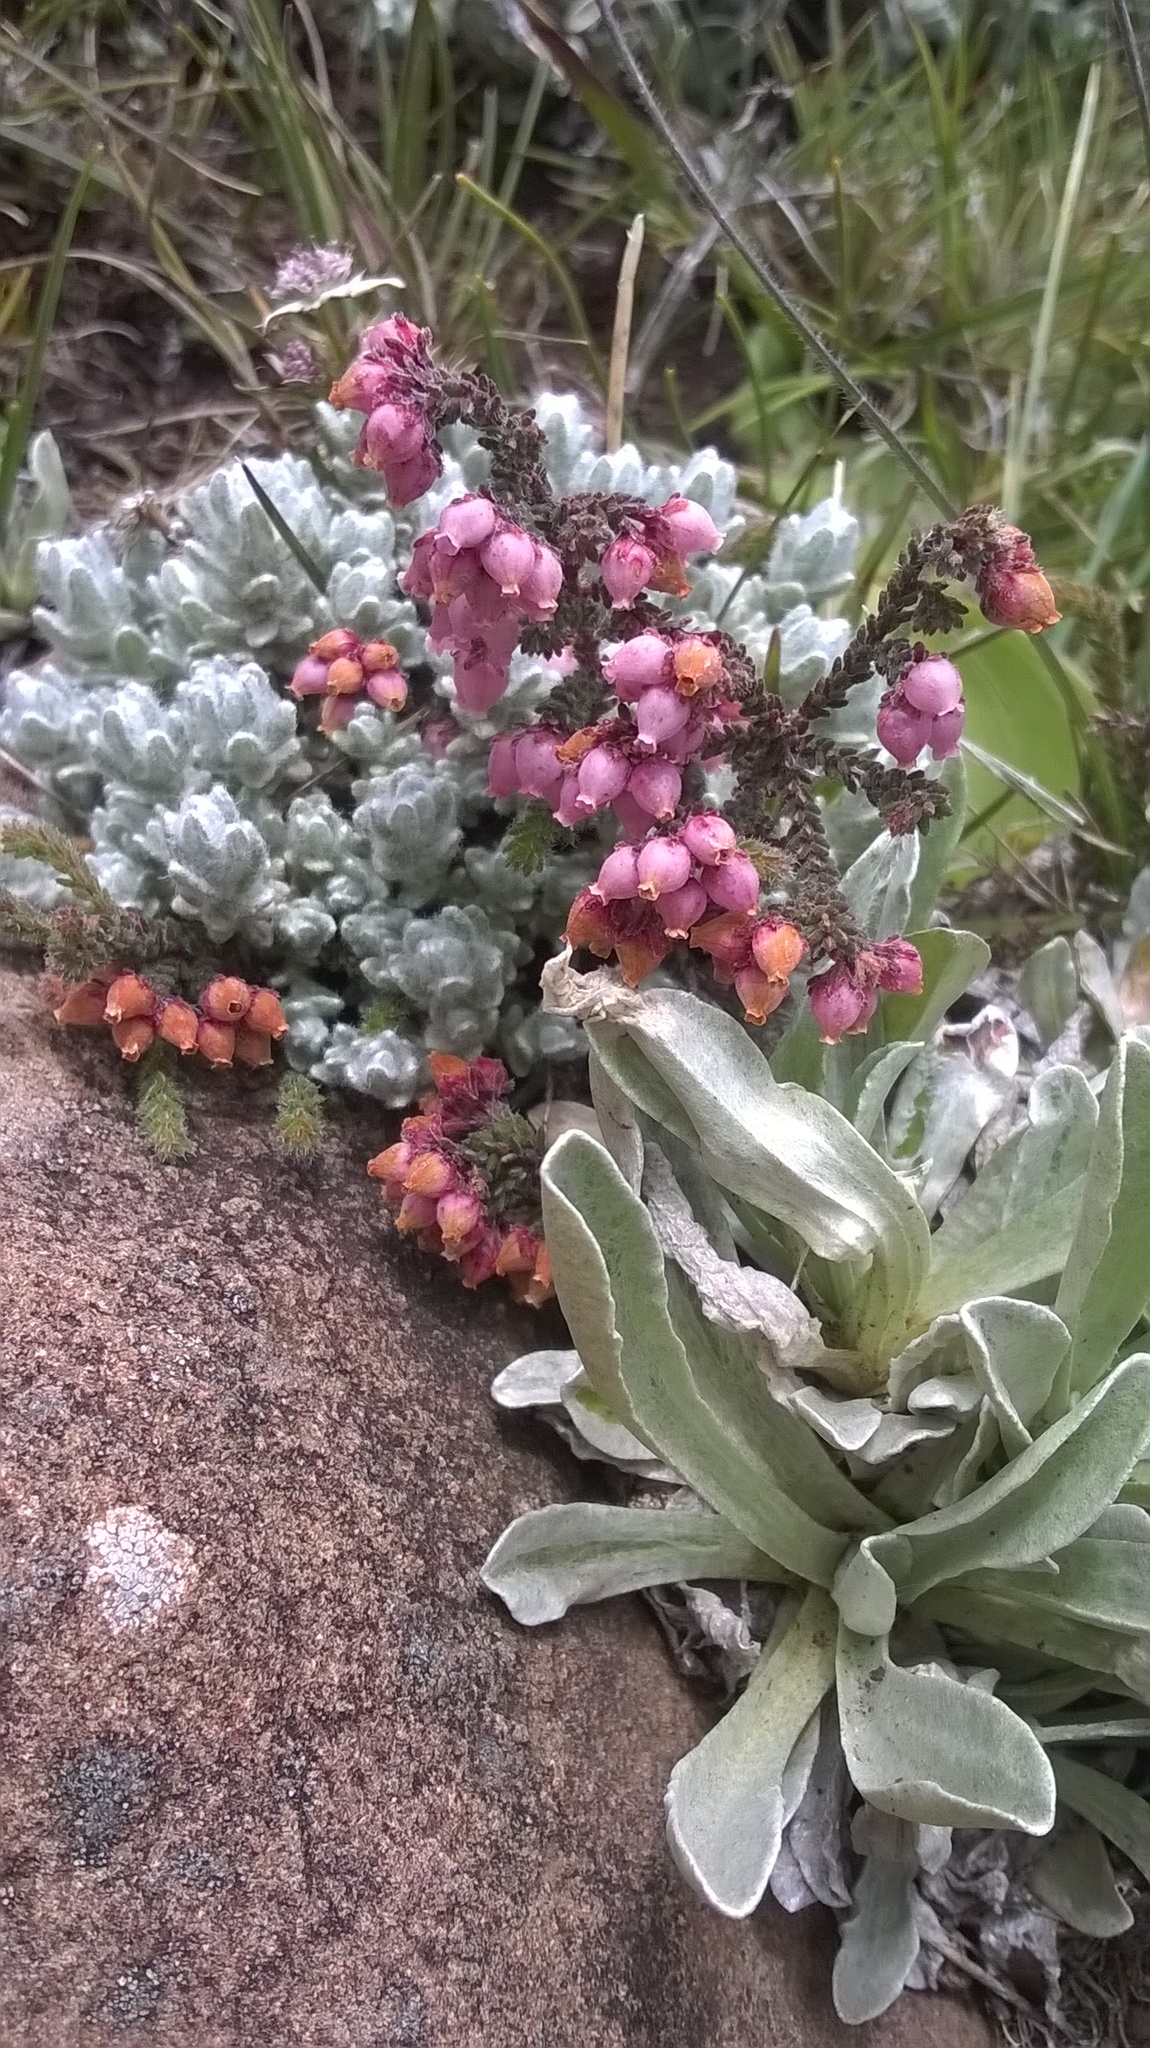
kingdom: Plantae
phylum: Tracheophyta
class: Magnoliopsida
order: Ericales
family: Ericaceae
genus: Erica
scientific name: Erica frigida
